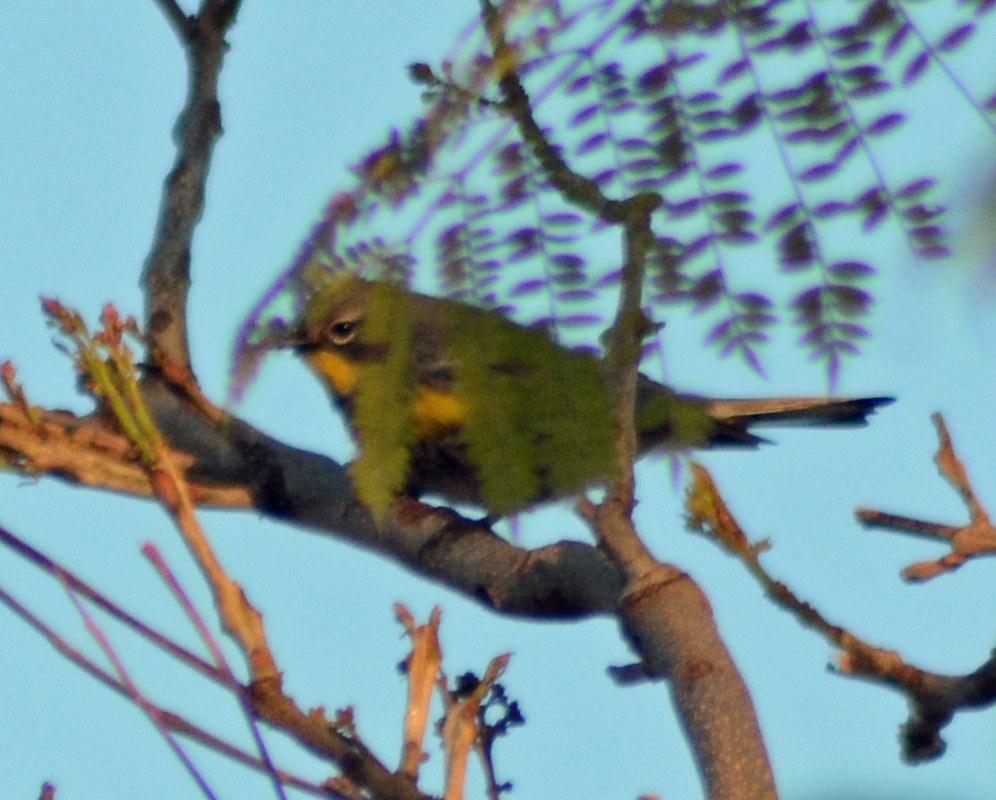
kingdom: Animalia
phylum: Chordata
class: Aves
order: Passeriformes
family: Parulidae
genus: Setophaga
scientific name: Setophaga auduboni
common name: Audubon's warbler
